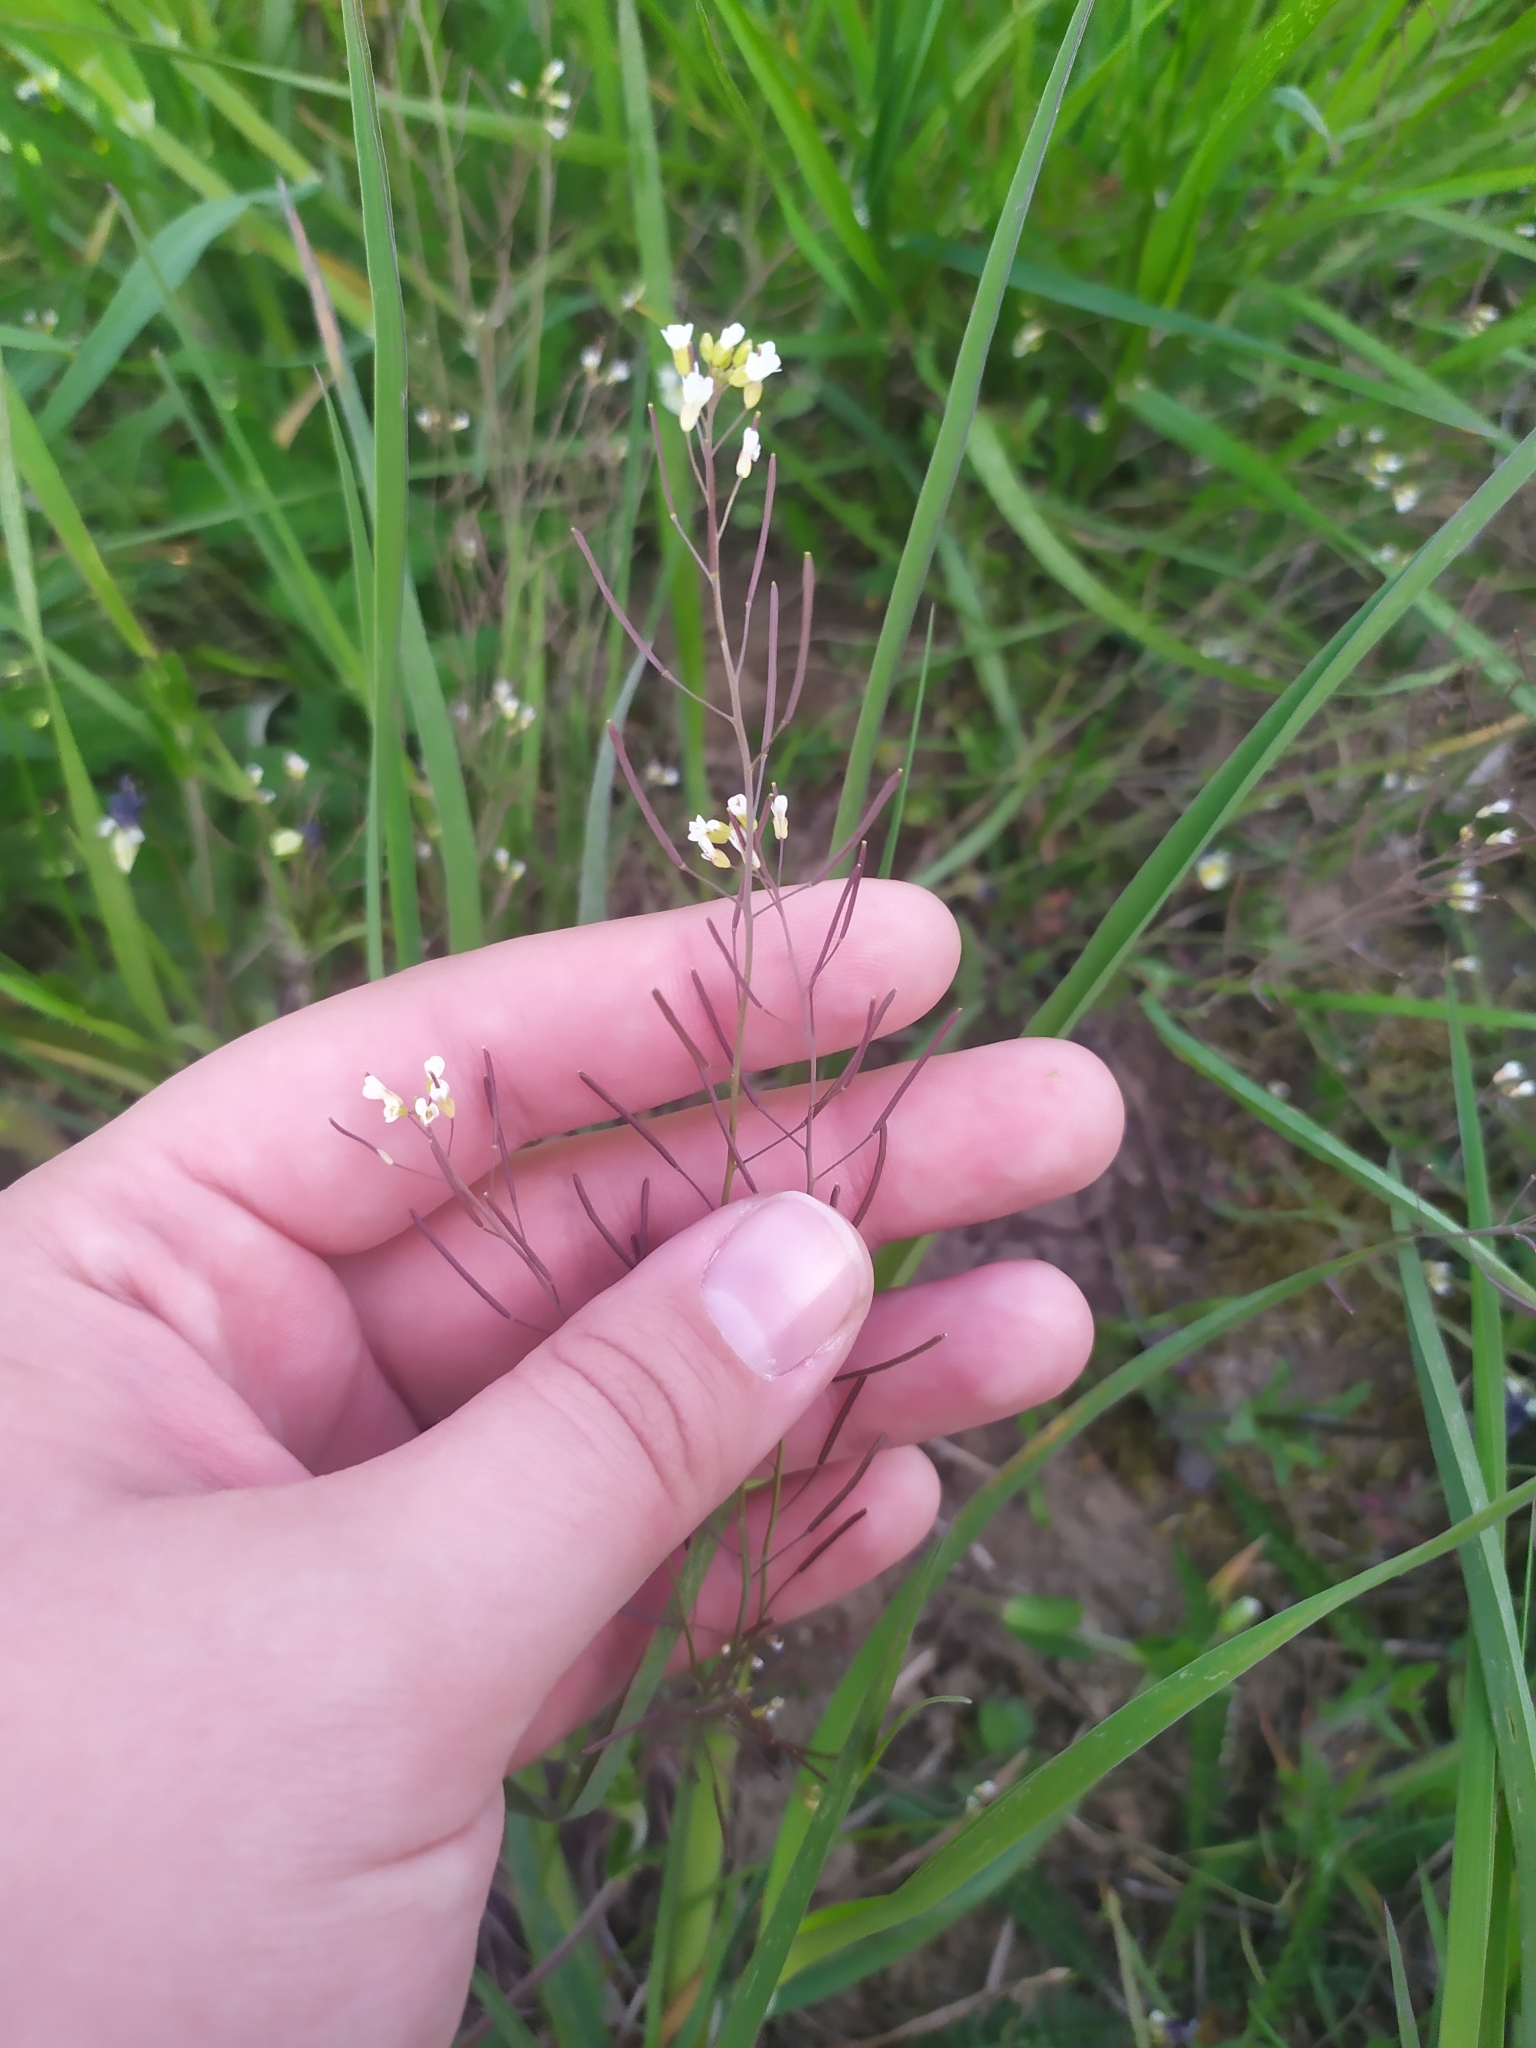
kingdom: Plantae
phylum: Tracheophyta
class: Magnoliopsida
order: Brassicales
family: Brassicaceae
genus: Arabidopsis
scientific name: Arabidopsis thaliana
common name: Thale cress
